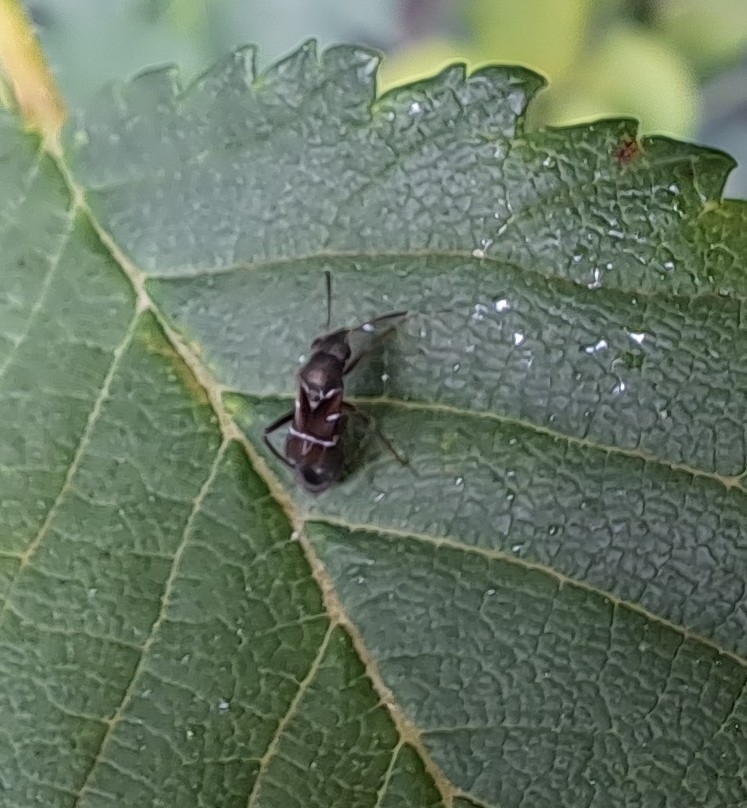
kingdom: Animalia
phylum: Arthropoda
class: Insecta
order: Hemiptera
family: Miridae
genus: Pilophorus
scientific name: Pilophorus perplexus
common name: Plant bug
